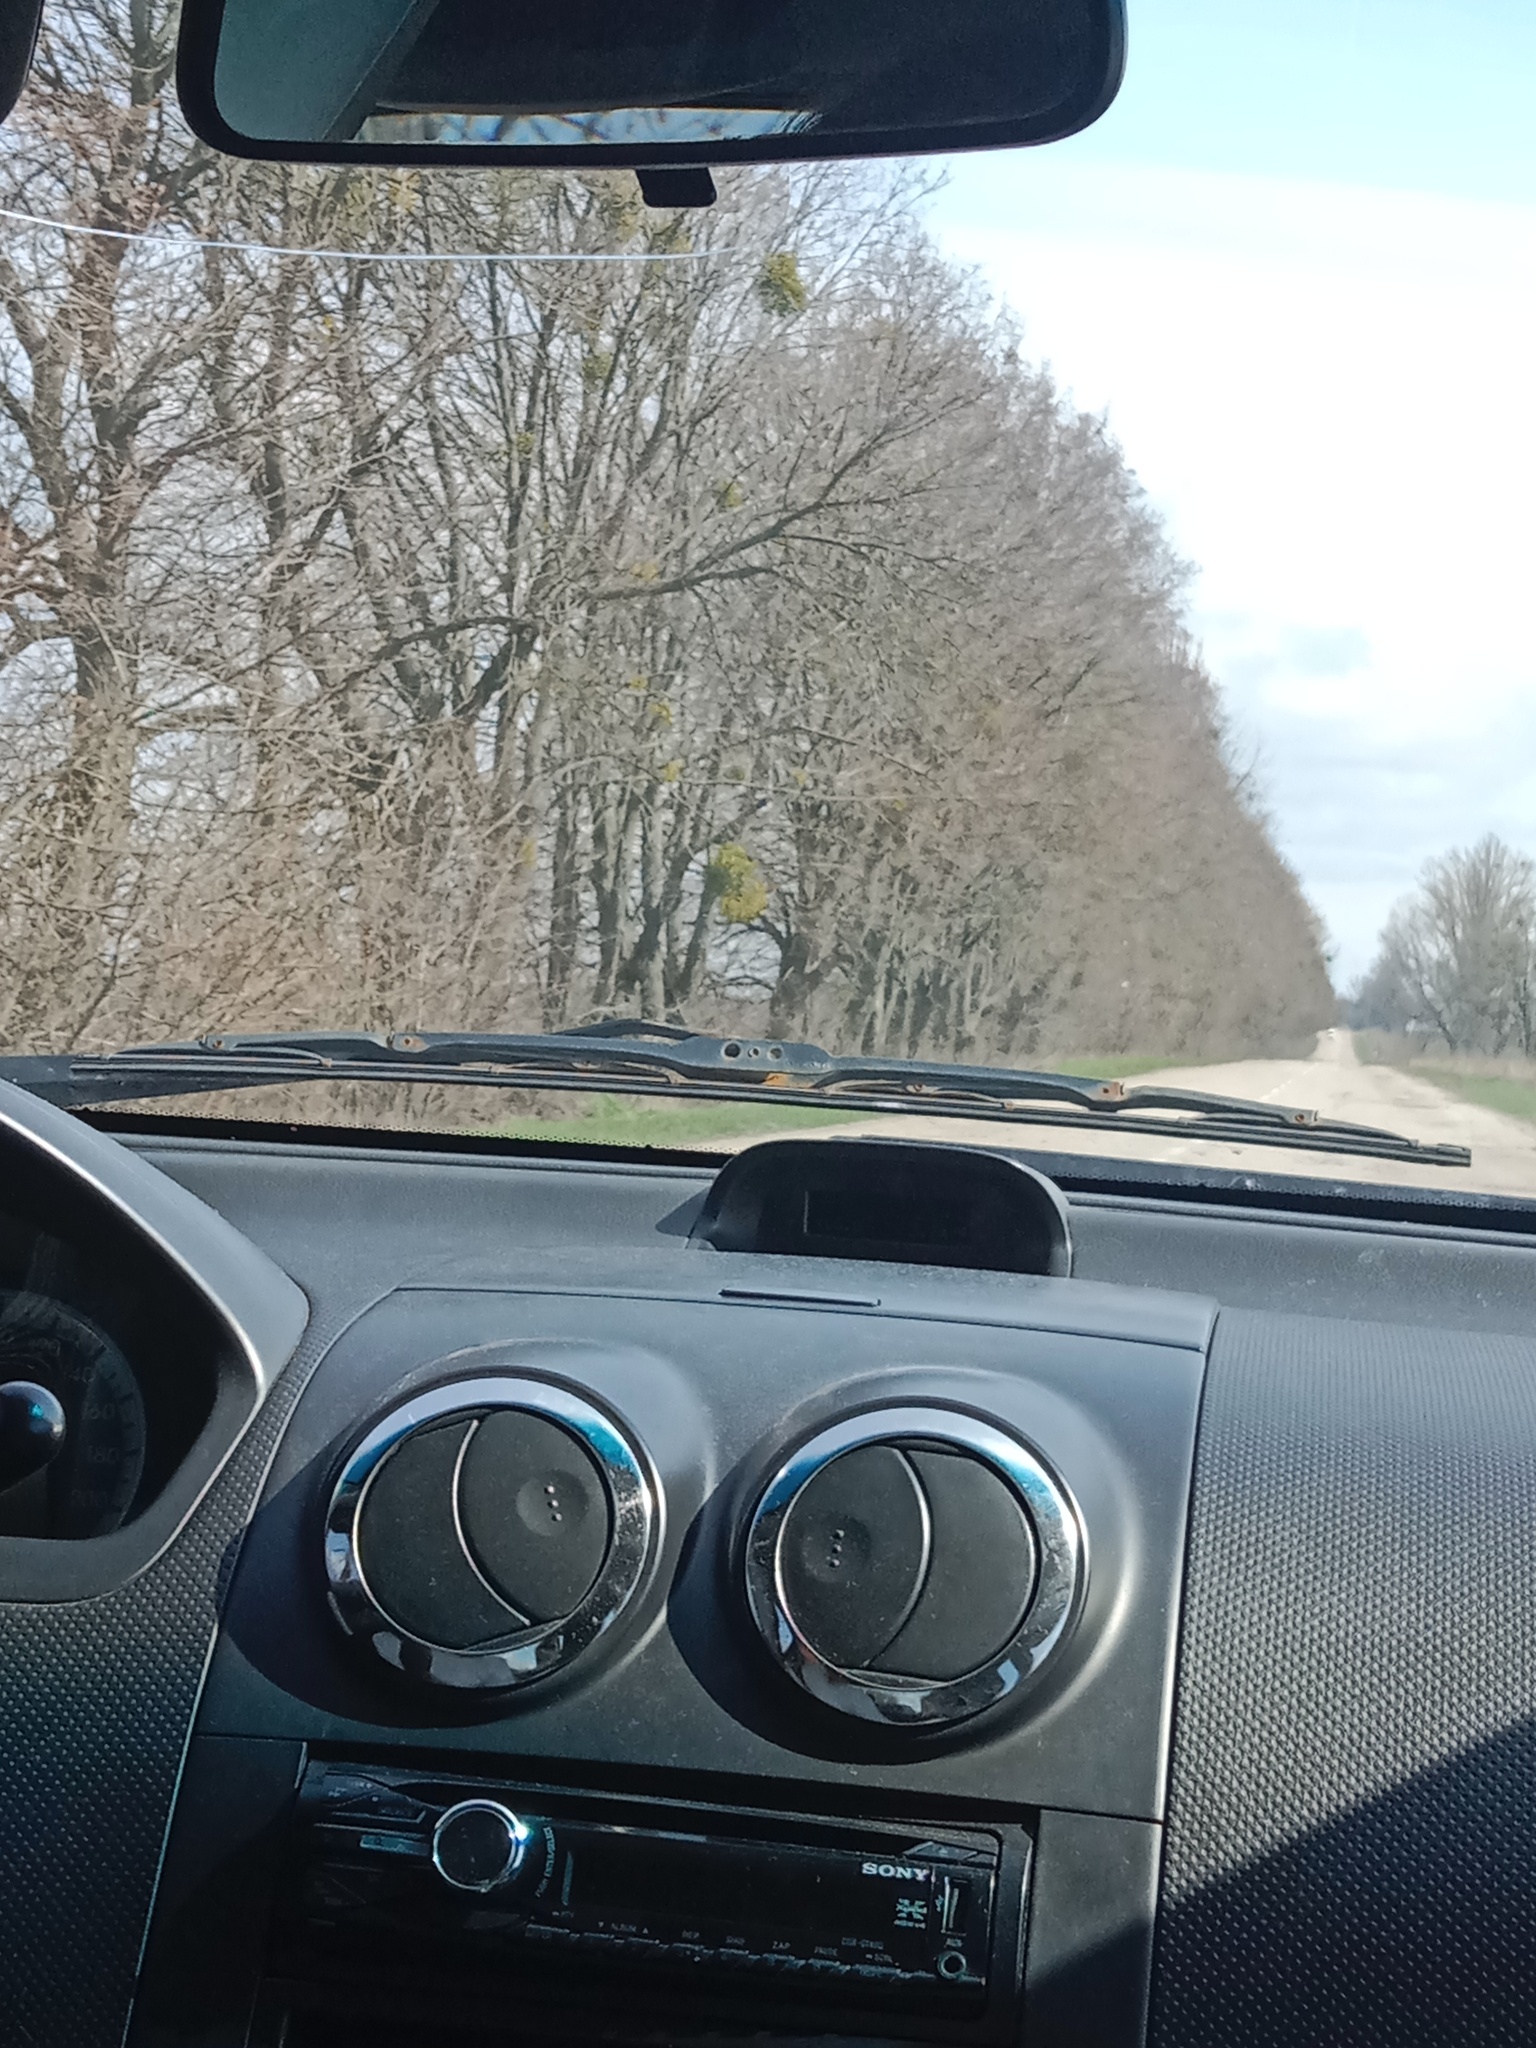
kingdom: Plantae
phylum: Tracheophyta
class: Magnoliopsida
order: Santalales
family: Viscaceae
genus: Viscum
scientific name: Viscum album
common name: Mistletoe
